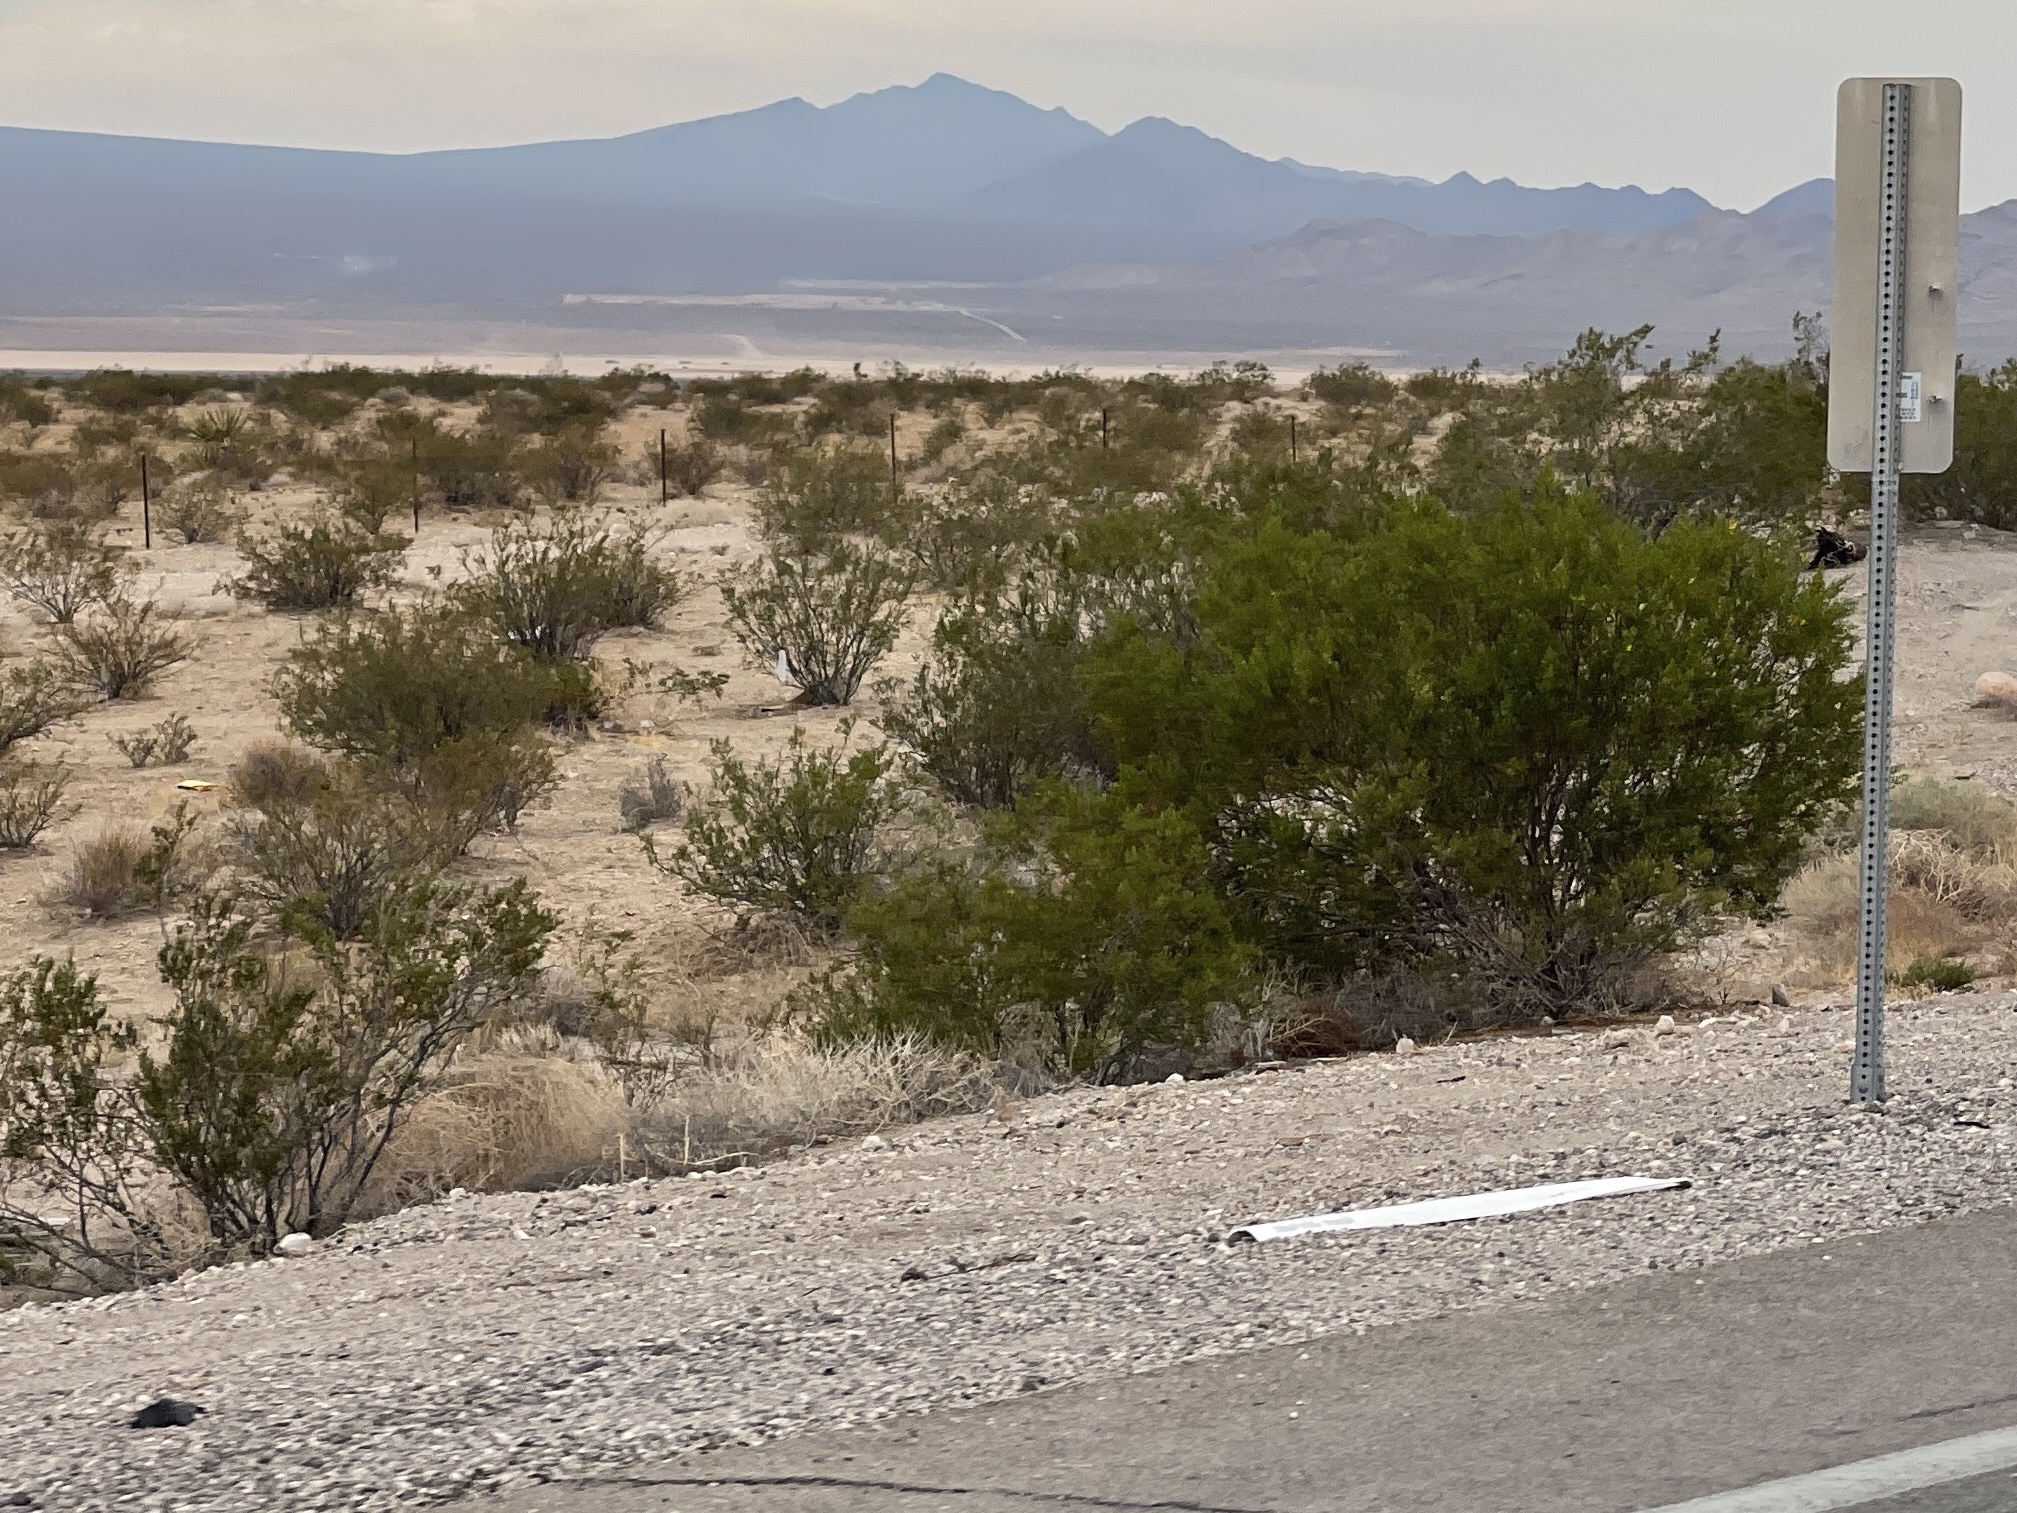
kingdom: Plantae
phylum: Tracheophyta
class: Magnoliopsida
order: Zygophyllales
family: Zygophyllaceae
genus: Larrea
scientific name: Larrea tridentata
